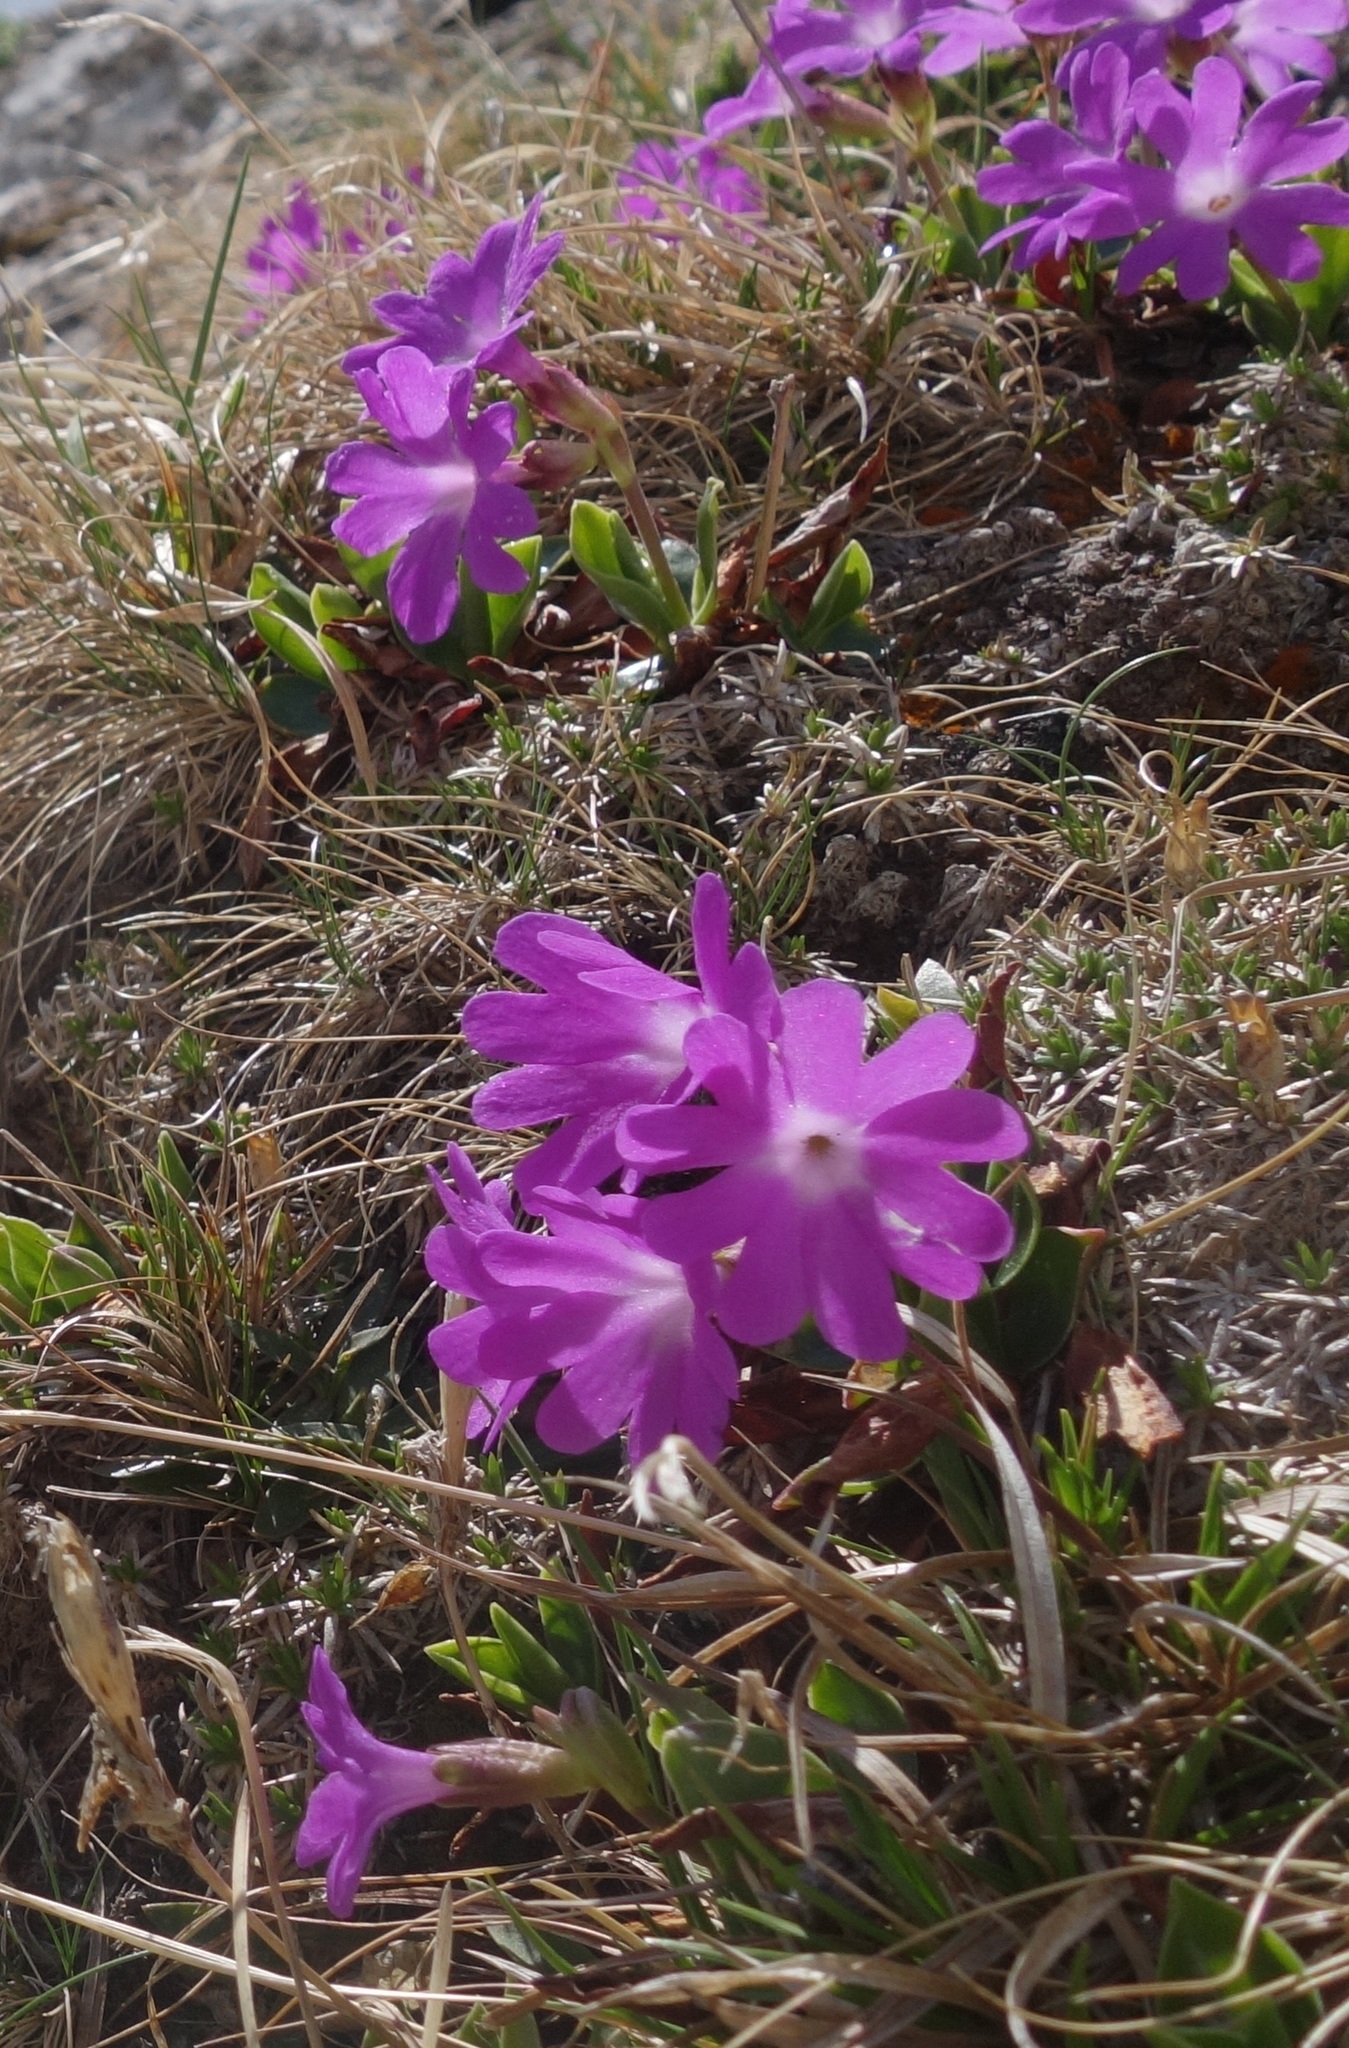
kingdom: Plantae
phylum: Tracheophyta
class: Magnoliopsida
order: Ericales
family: Primulaceae
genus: Primula
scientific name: Primula clusiana
